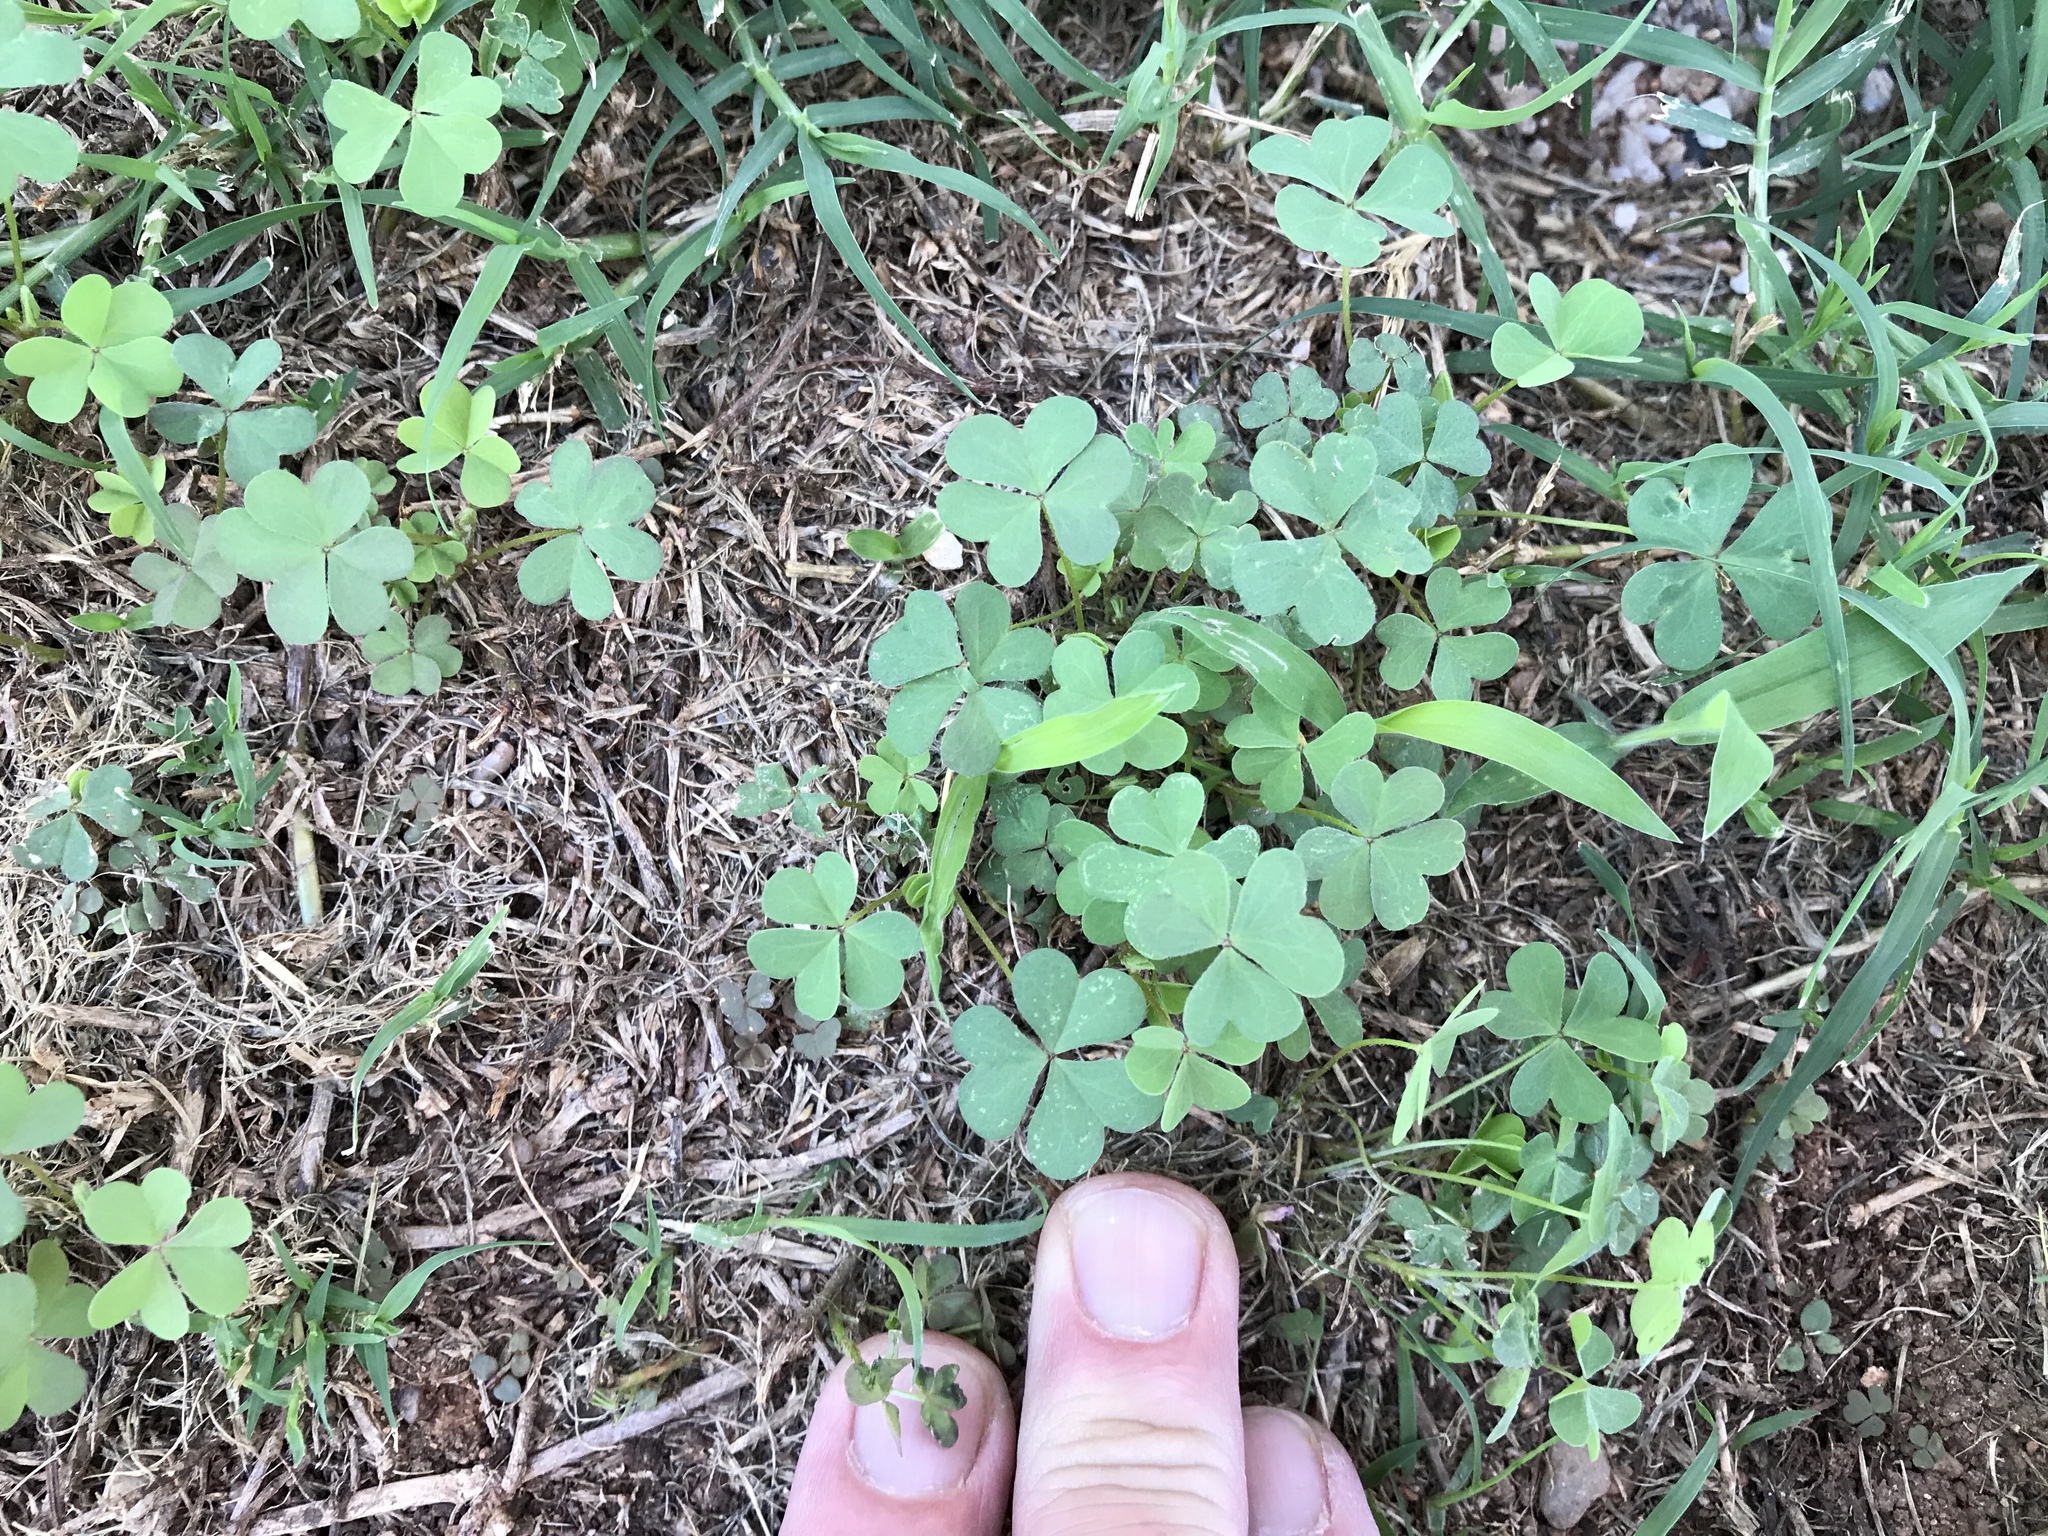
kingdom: Plantae
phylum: Tracheophyta
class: Magnoliopsida
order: Oxalidales
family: Oxalidaceae
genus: Oxalis
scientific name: Oxalis corniculata
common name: Procumbent yellow-sorrel
